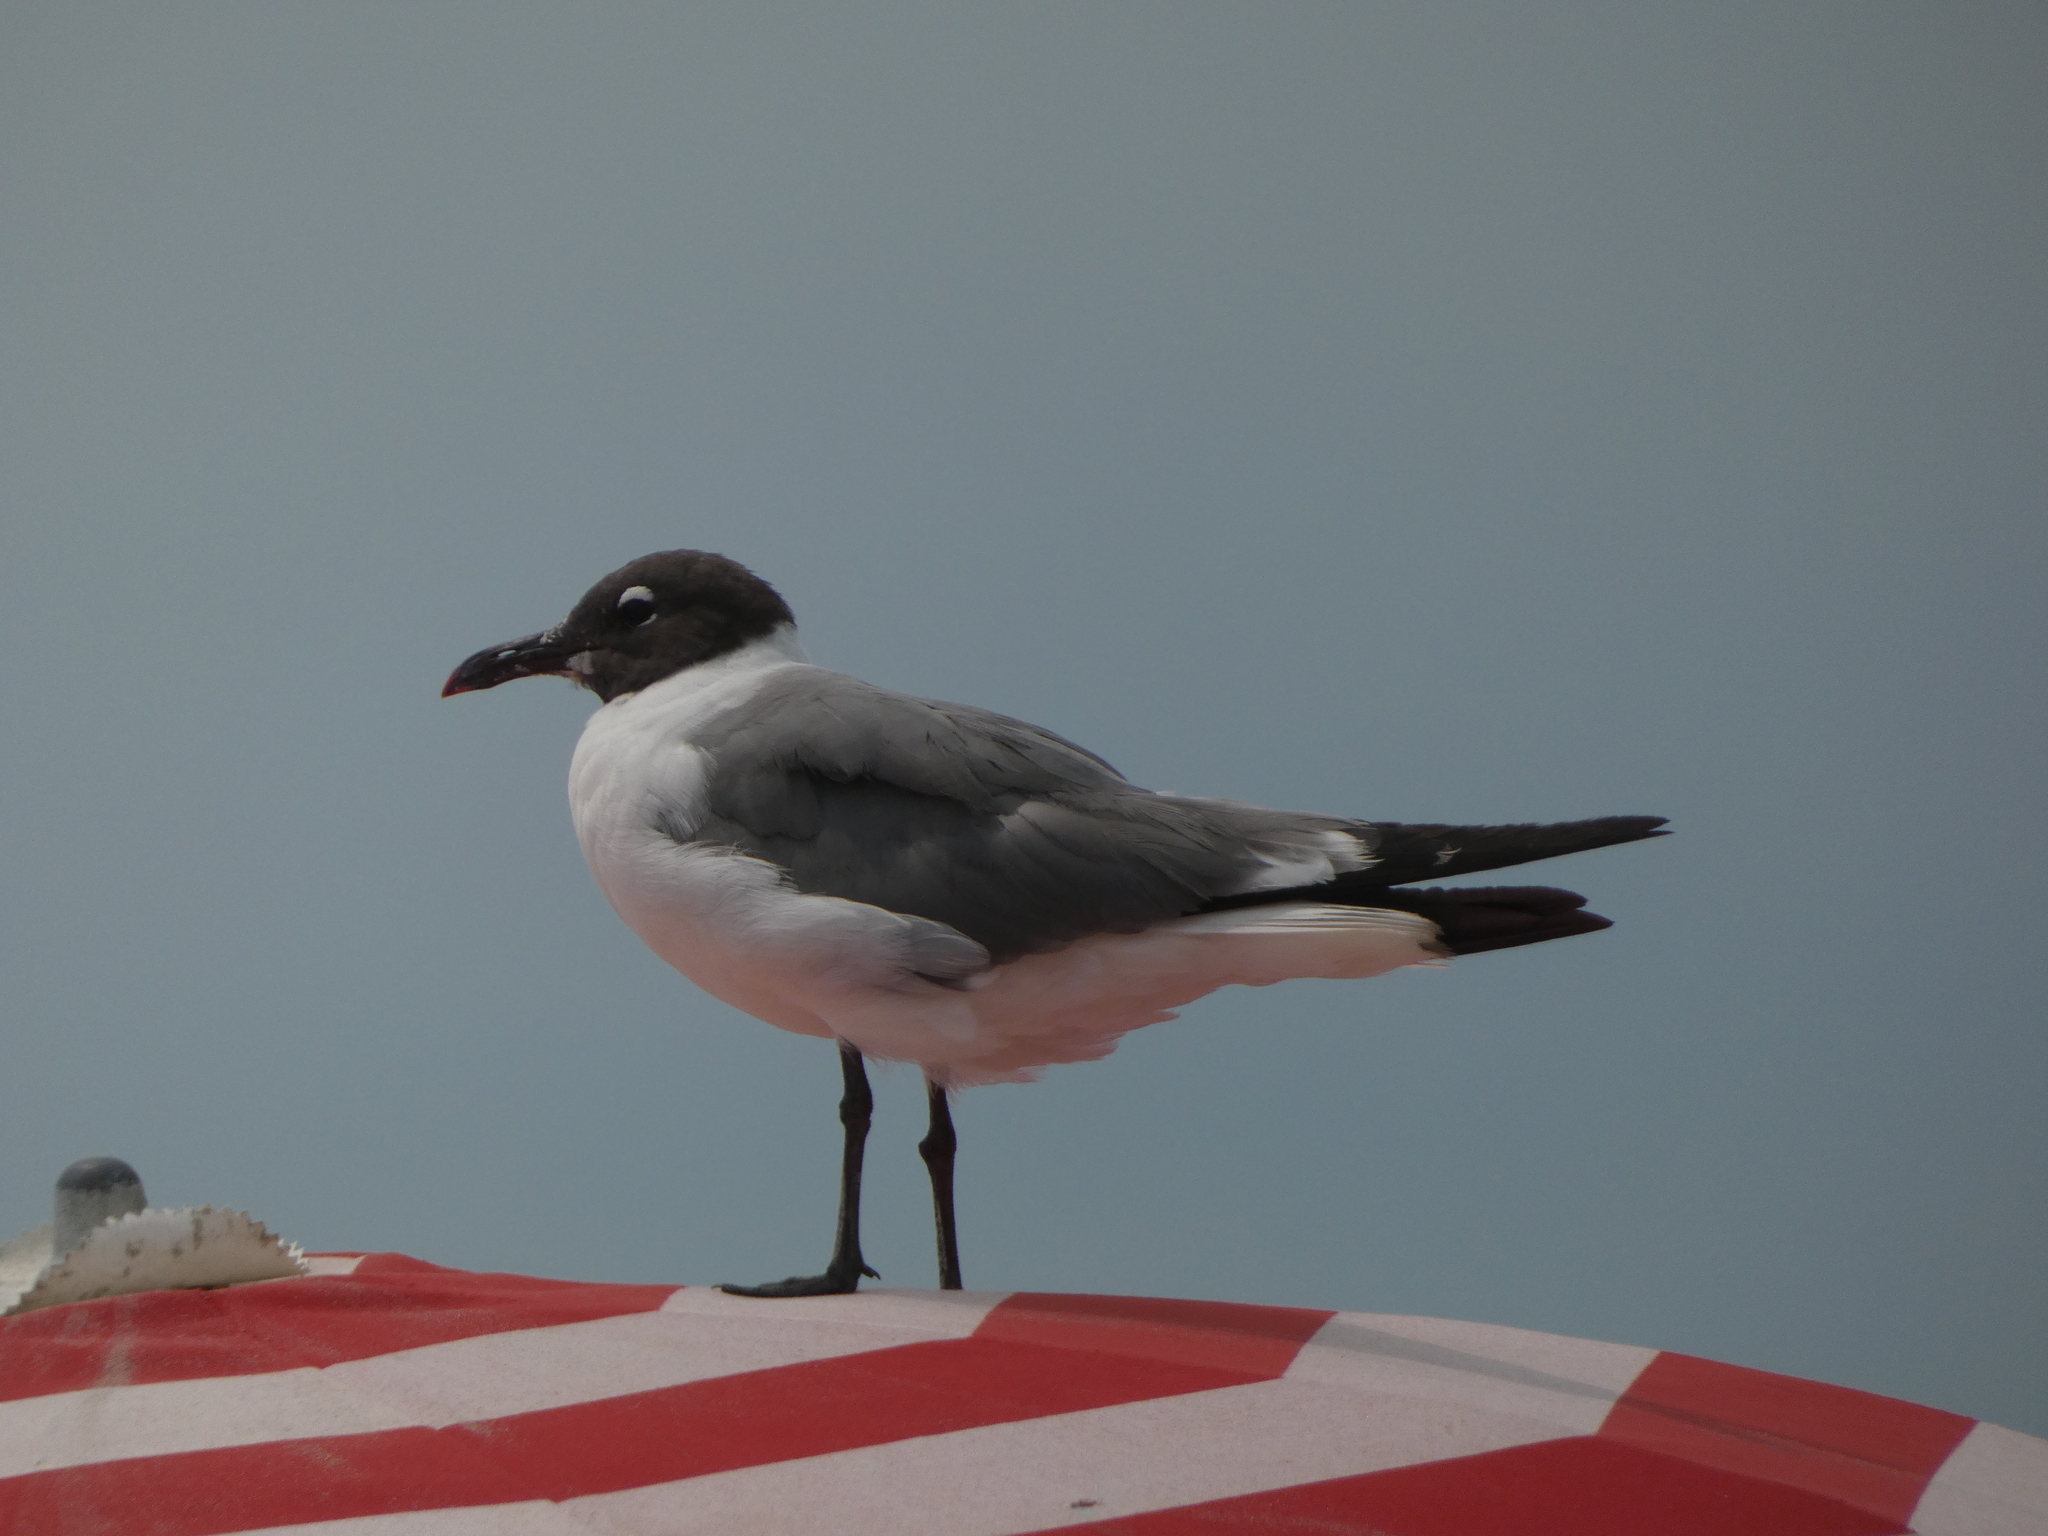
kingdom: Animalia
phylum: Chordata
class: Aves
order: Charadriiformes
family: Laridae
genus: Leucophaeus
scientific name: Leucophaeus atricilla
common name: Laughing gull
